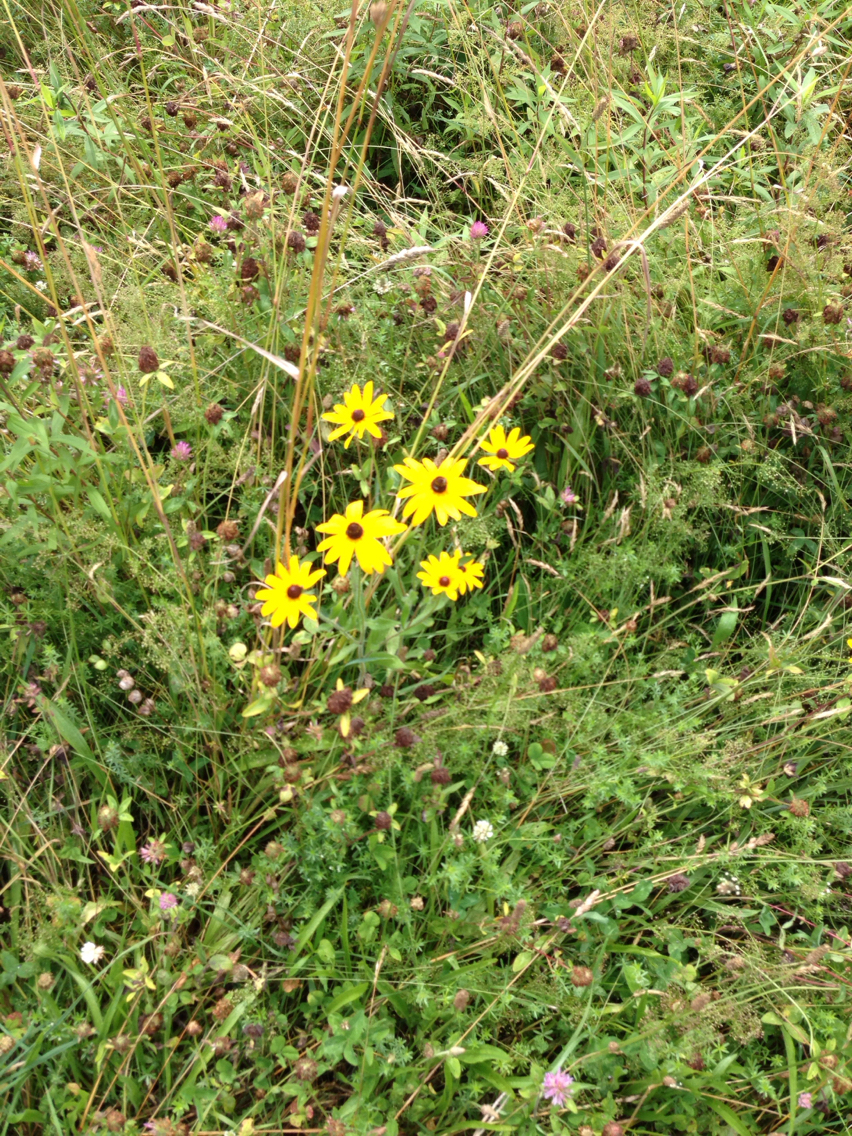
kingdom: Plantae
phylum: Tracheophyta
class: Magnoliopsida
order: Asterales
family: Asteraceae
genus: Rudbeckia
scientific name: Rudbeckia hirta
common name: Black-eyed-susan
